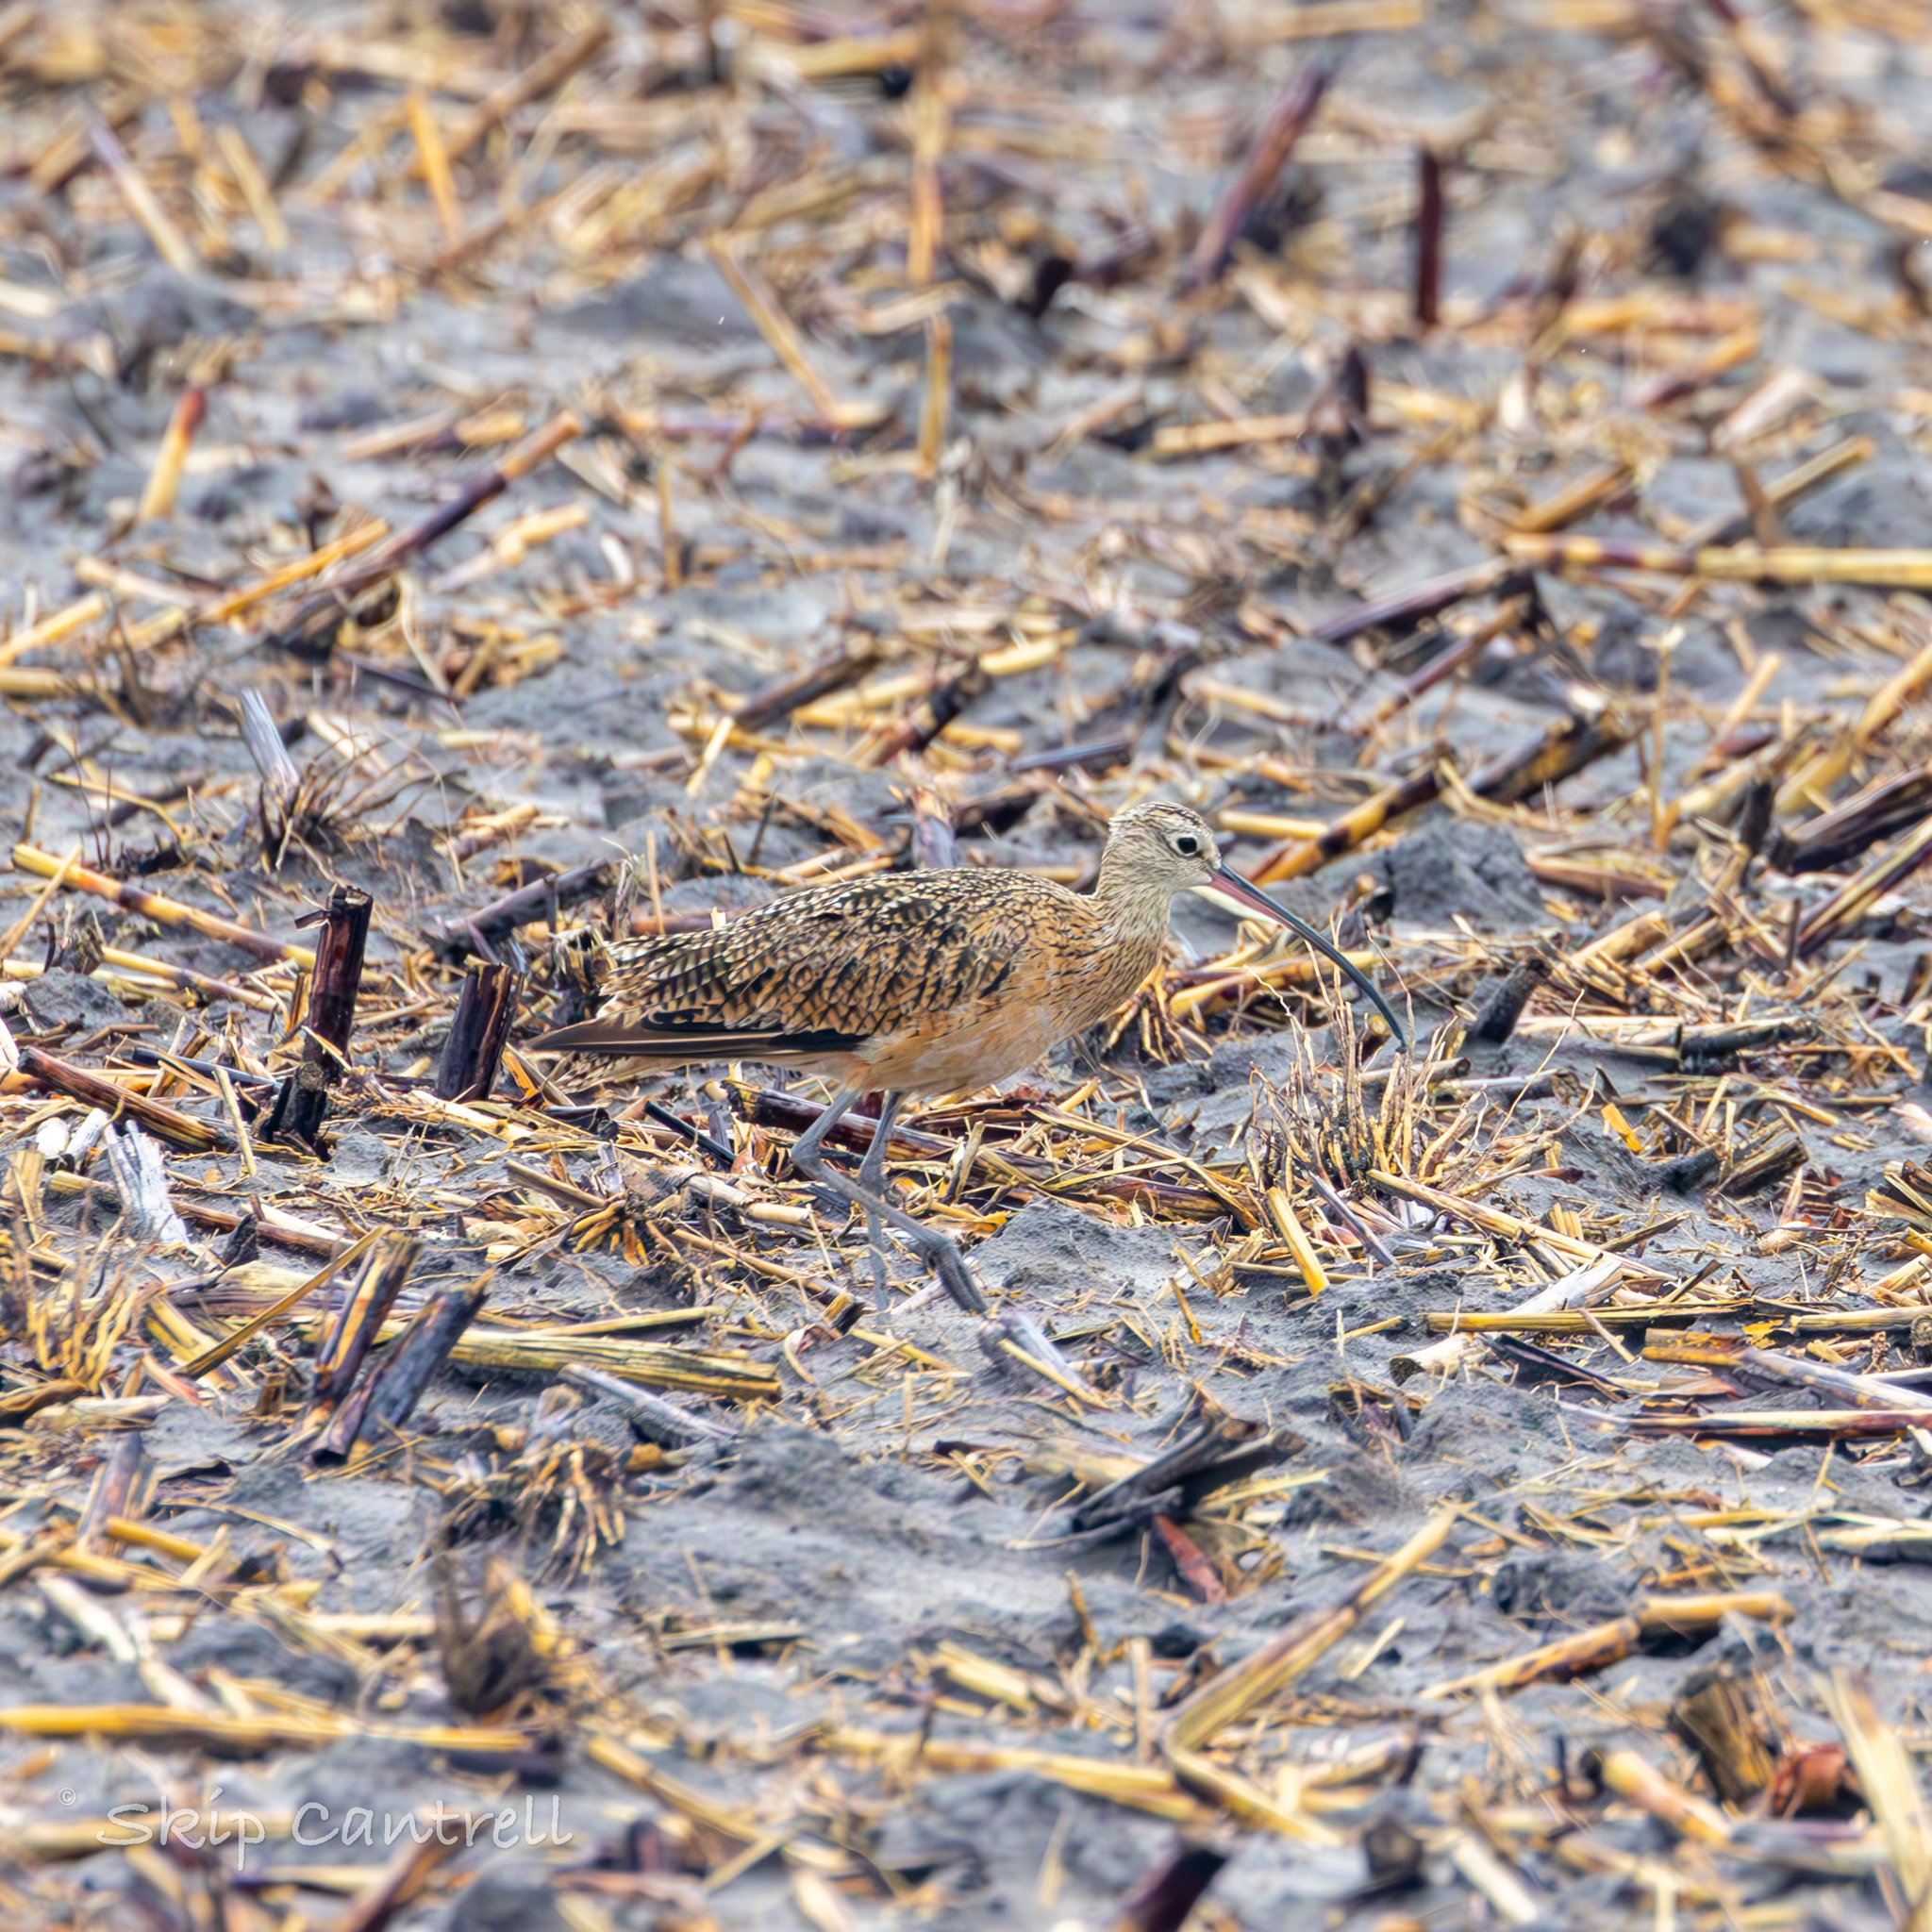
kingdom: Animalia
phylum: Chordata
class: Aves
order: Charadriiformes
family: Scolopacidae
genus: Numenius
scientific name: Numenius americanus
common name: Long-billed curlew
